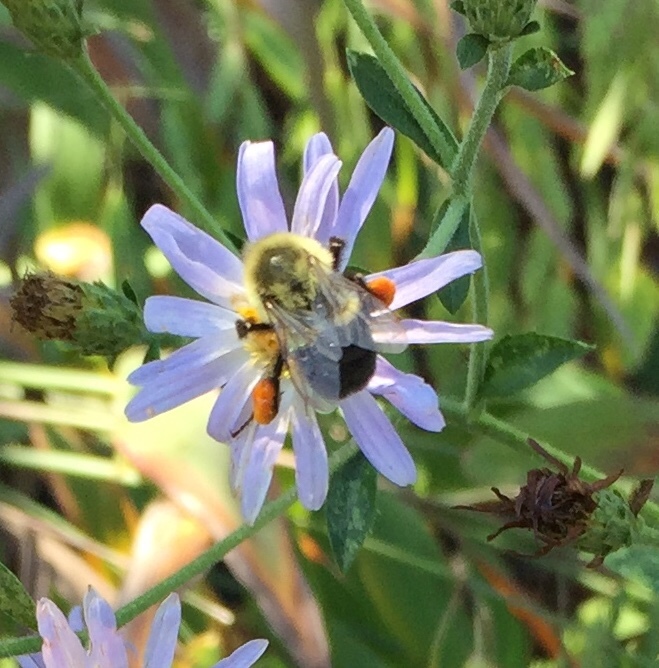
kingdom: Animalia
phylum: Arthropoda
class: Insecta
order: Hymenoptera
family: Apidae
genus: Bombus
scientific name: Bombus impatiens
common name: Common eastern bumble bee
